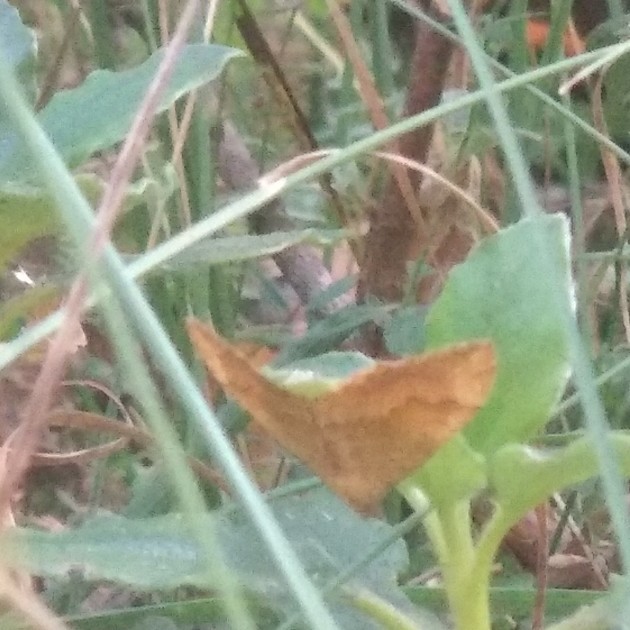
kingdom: Animalia
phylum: Arthropoda
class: Insecta
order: Lepidoptera
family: Geometridae
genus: Camptogramma
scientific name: Camptogramma bilineata
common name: Yellow shell
